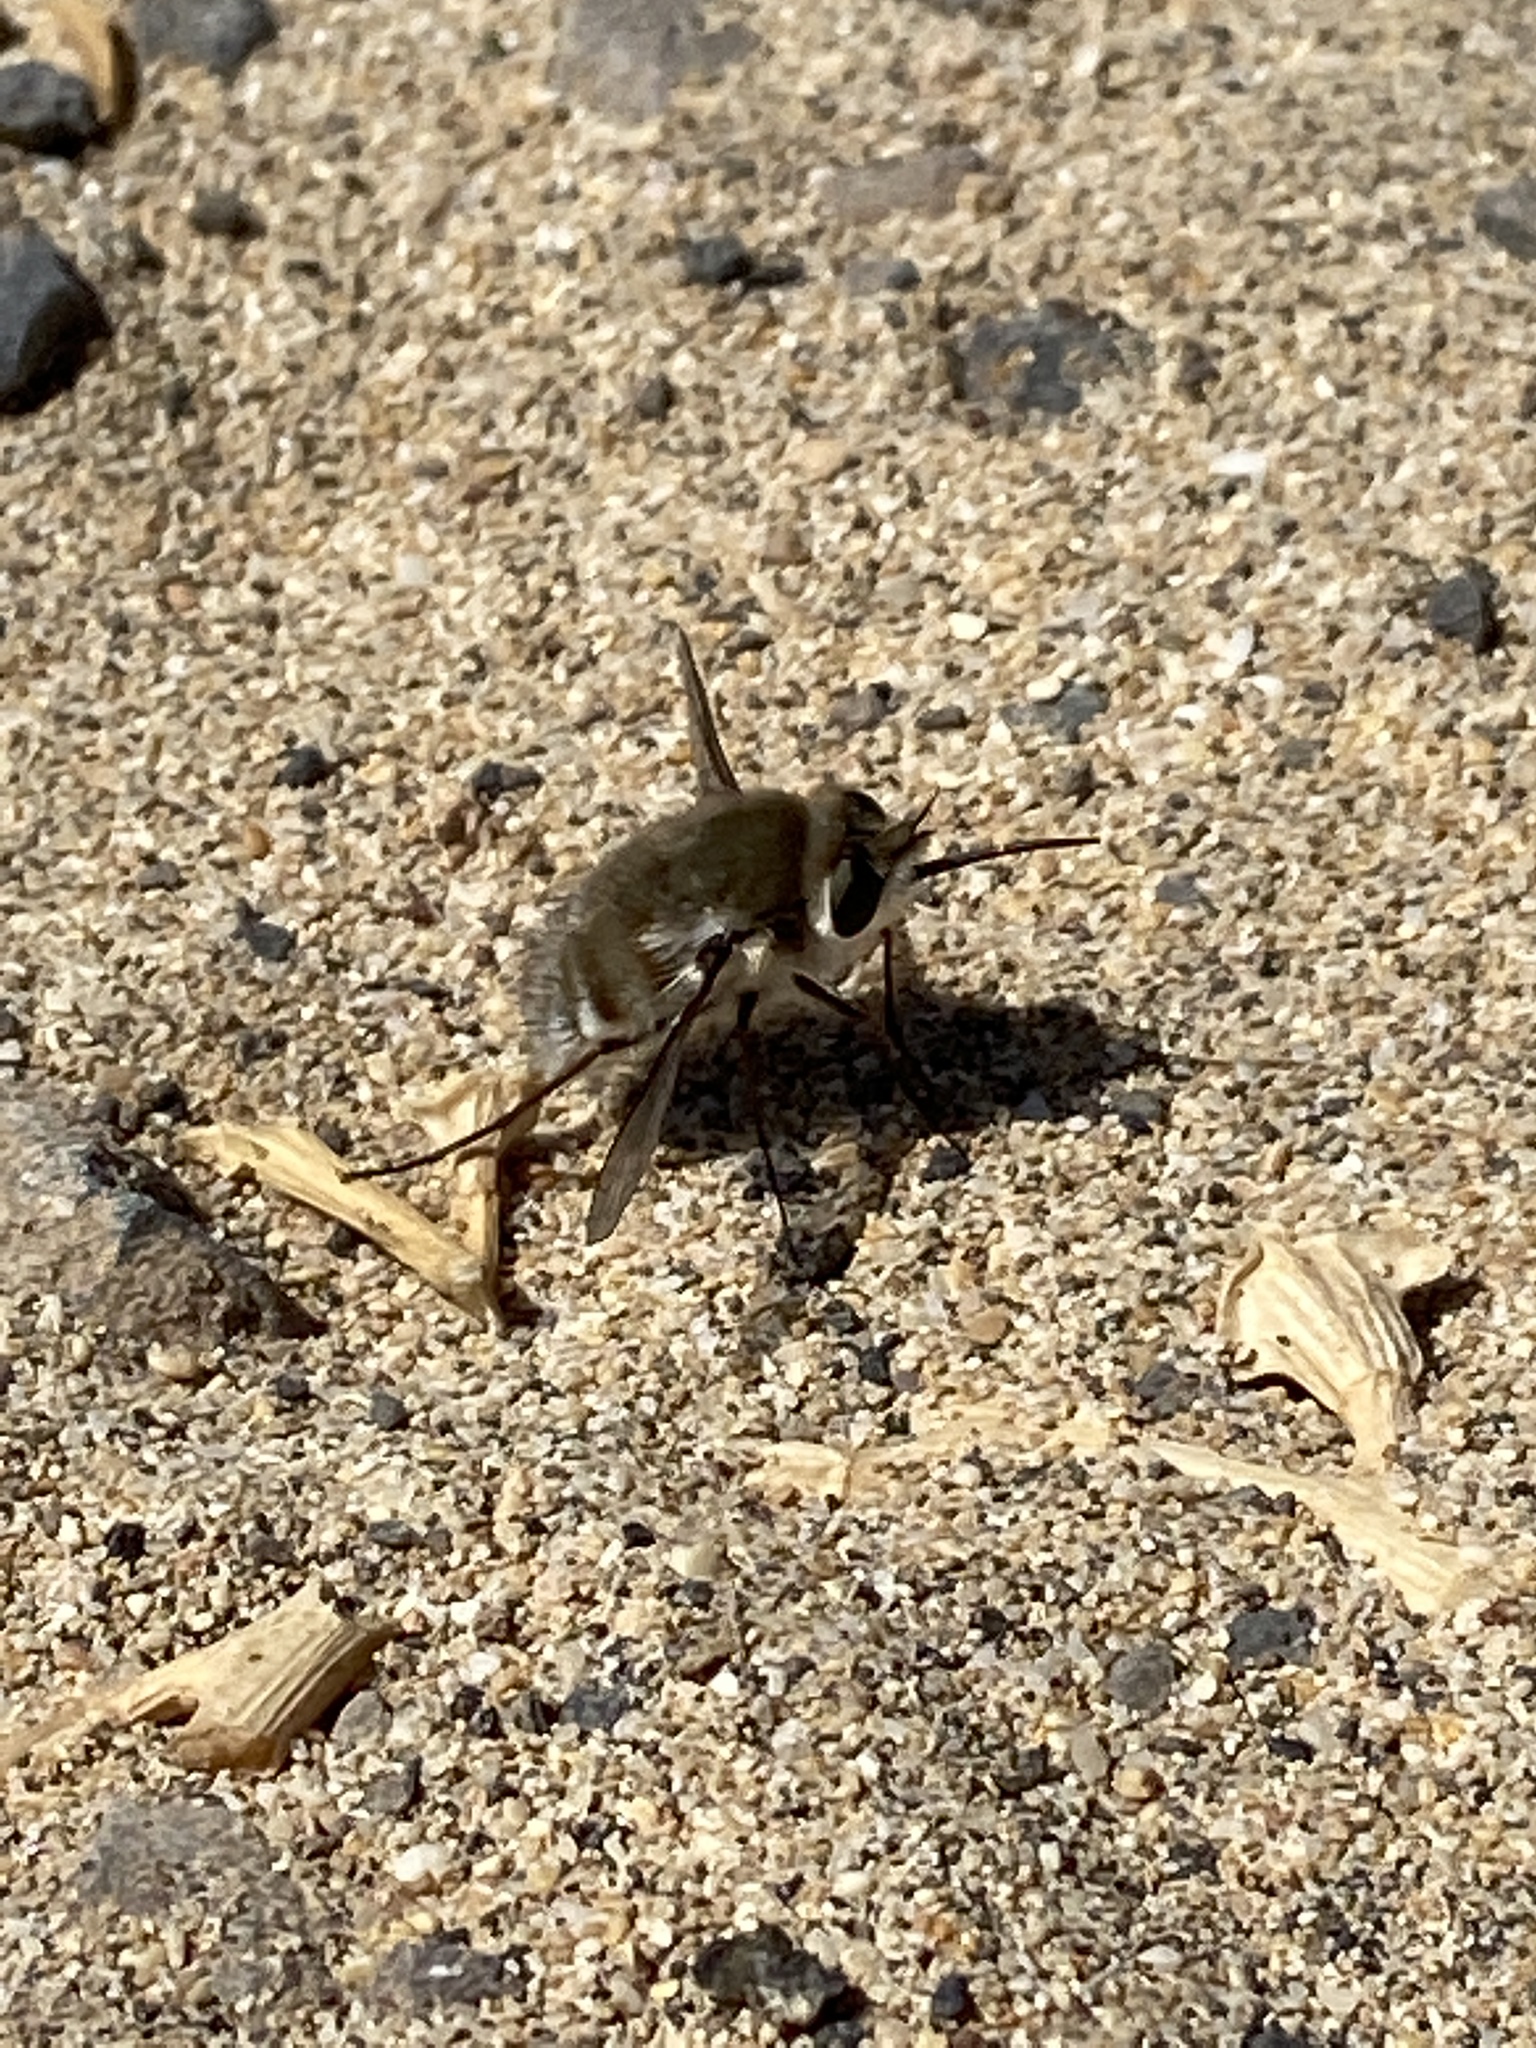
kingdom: Animalia
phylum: Arthropoda
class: Insecta
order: Diptera
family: Bombyliidae
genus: Dischistus
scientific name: Dischistus atlanticus
